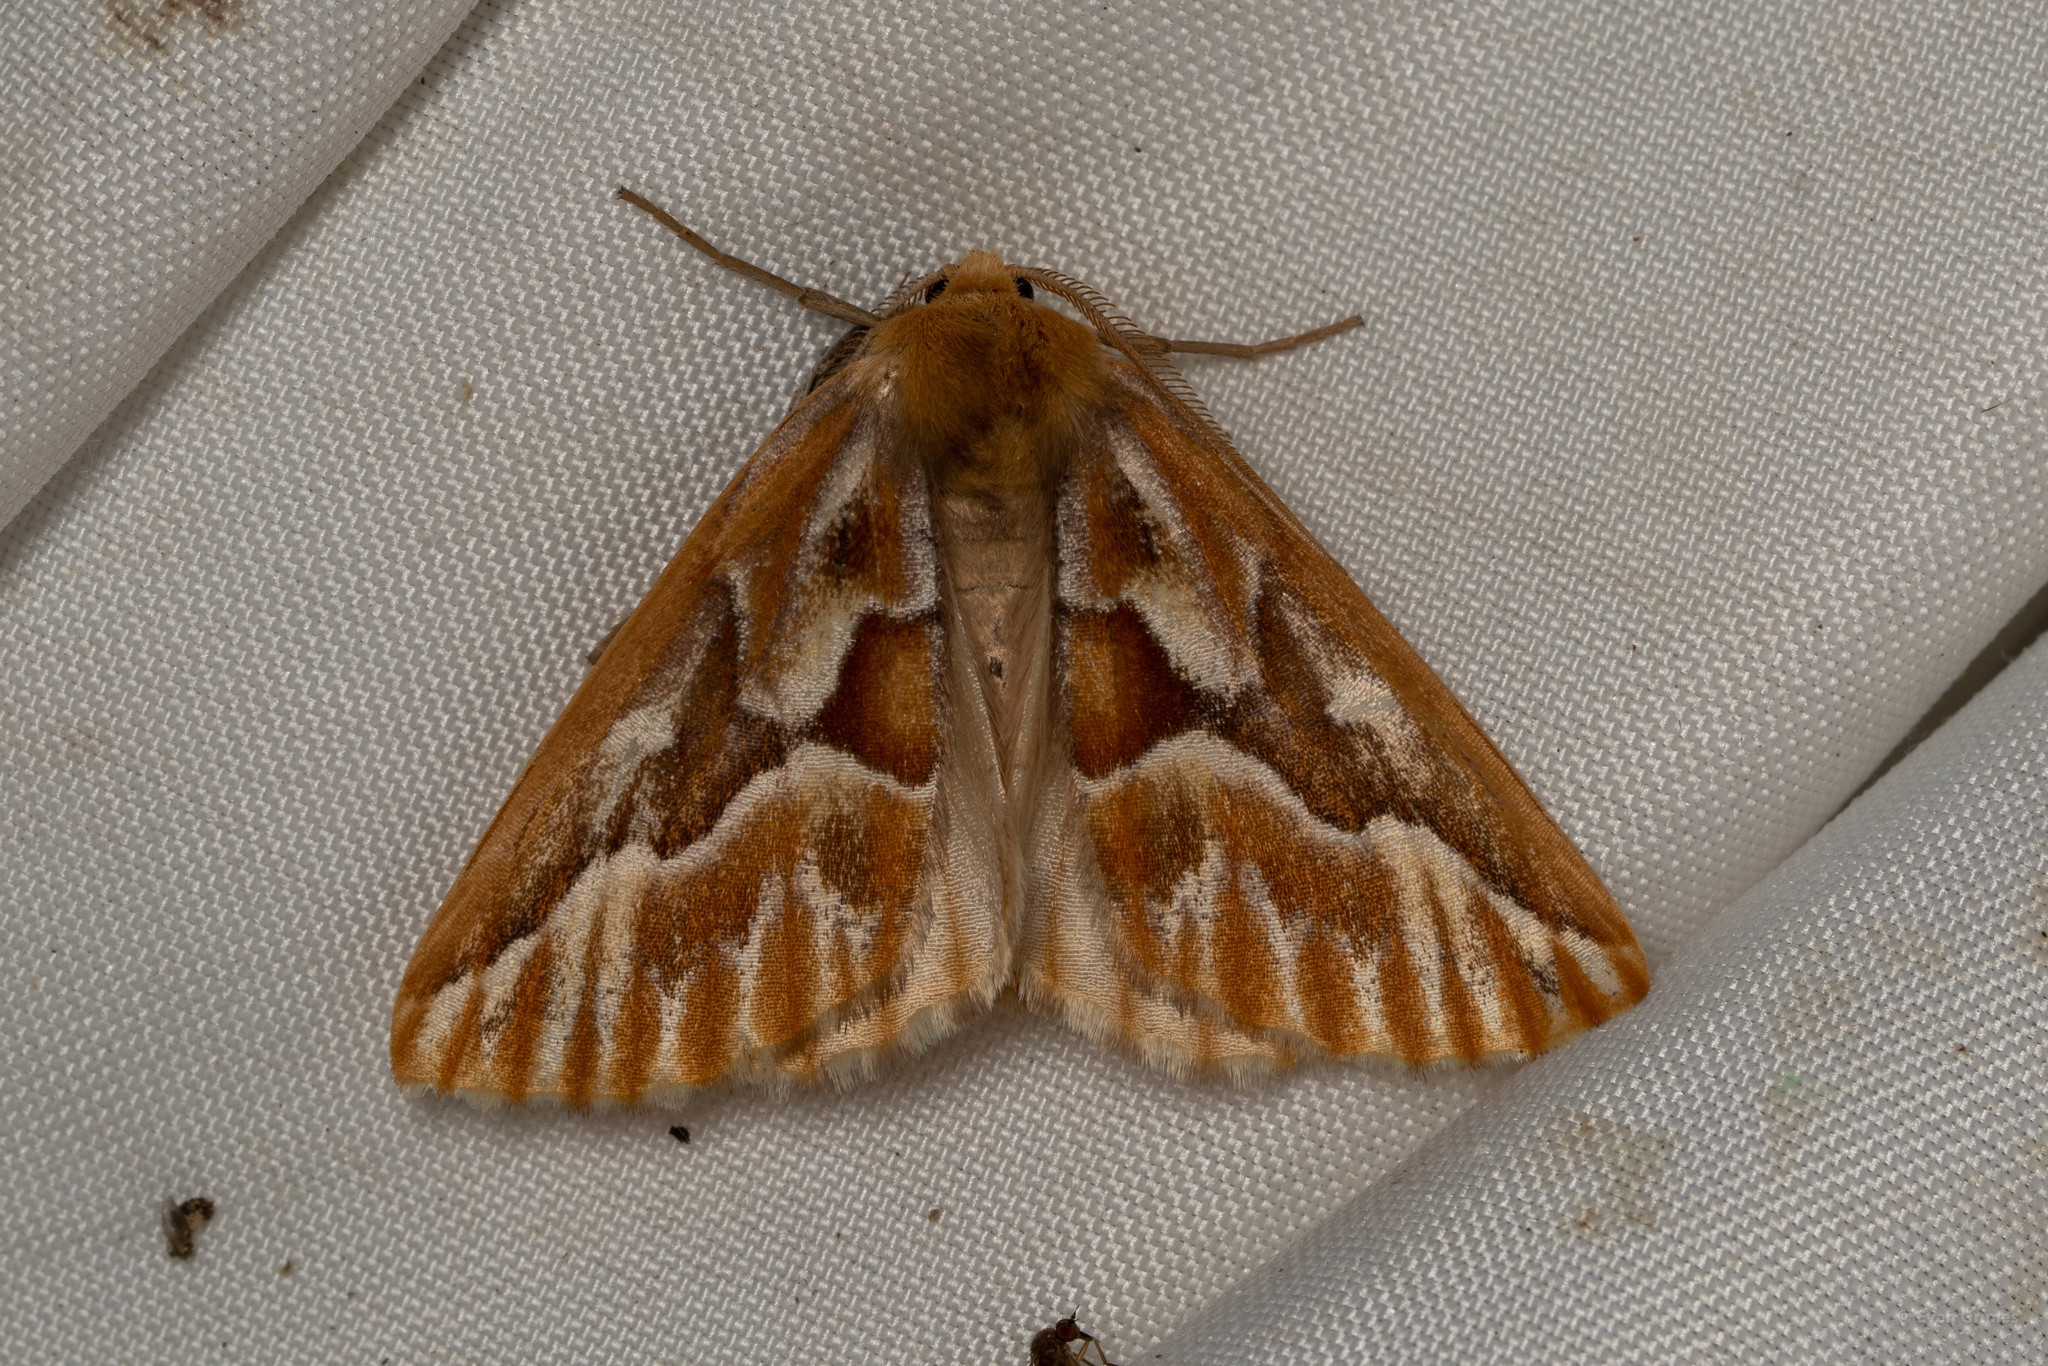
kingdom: Animalia
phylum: Arthropoda
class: Insecta
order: Lepidoptera
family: Geometridae
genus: Caripeta
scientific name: Caripeta piniata
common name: Northern pine looper moth
